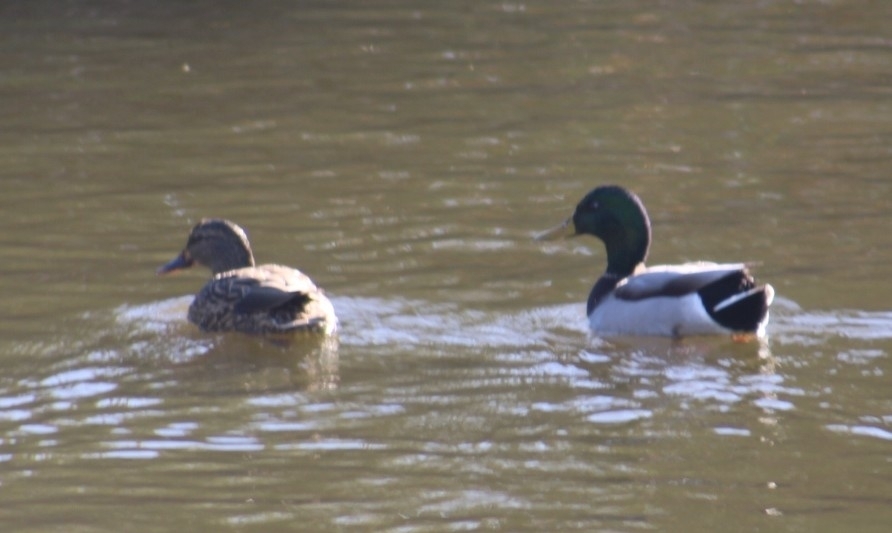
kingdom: Animalia
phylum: Chordata
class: Aves
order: Anseriformes
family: Anatidae
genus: Anas
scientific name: Anas platyrhynchos
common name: Mallard
